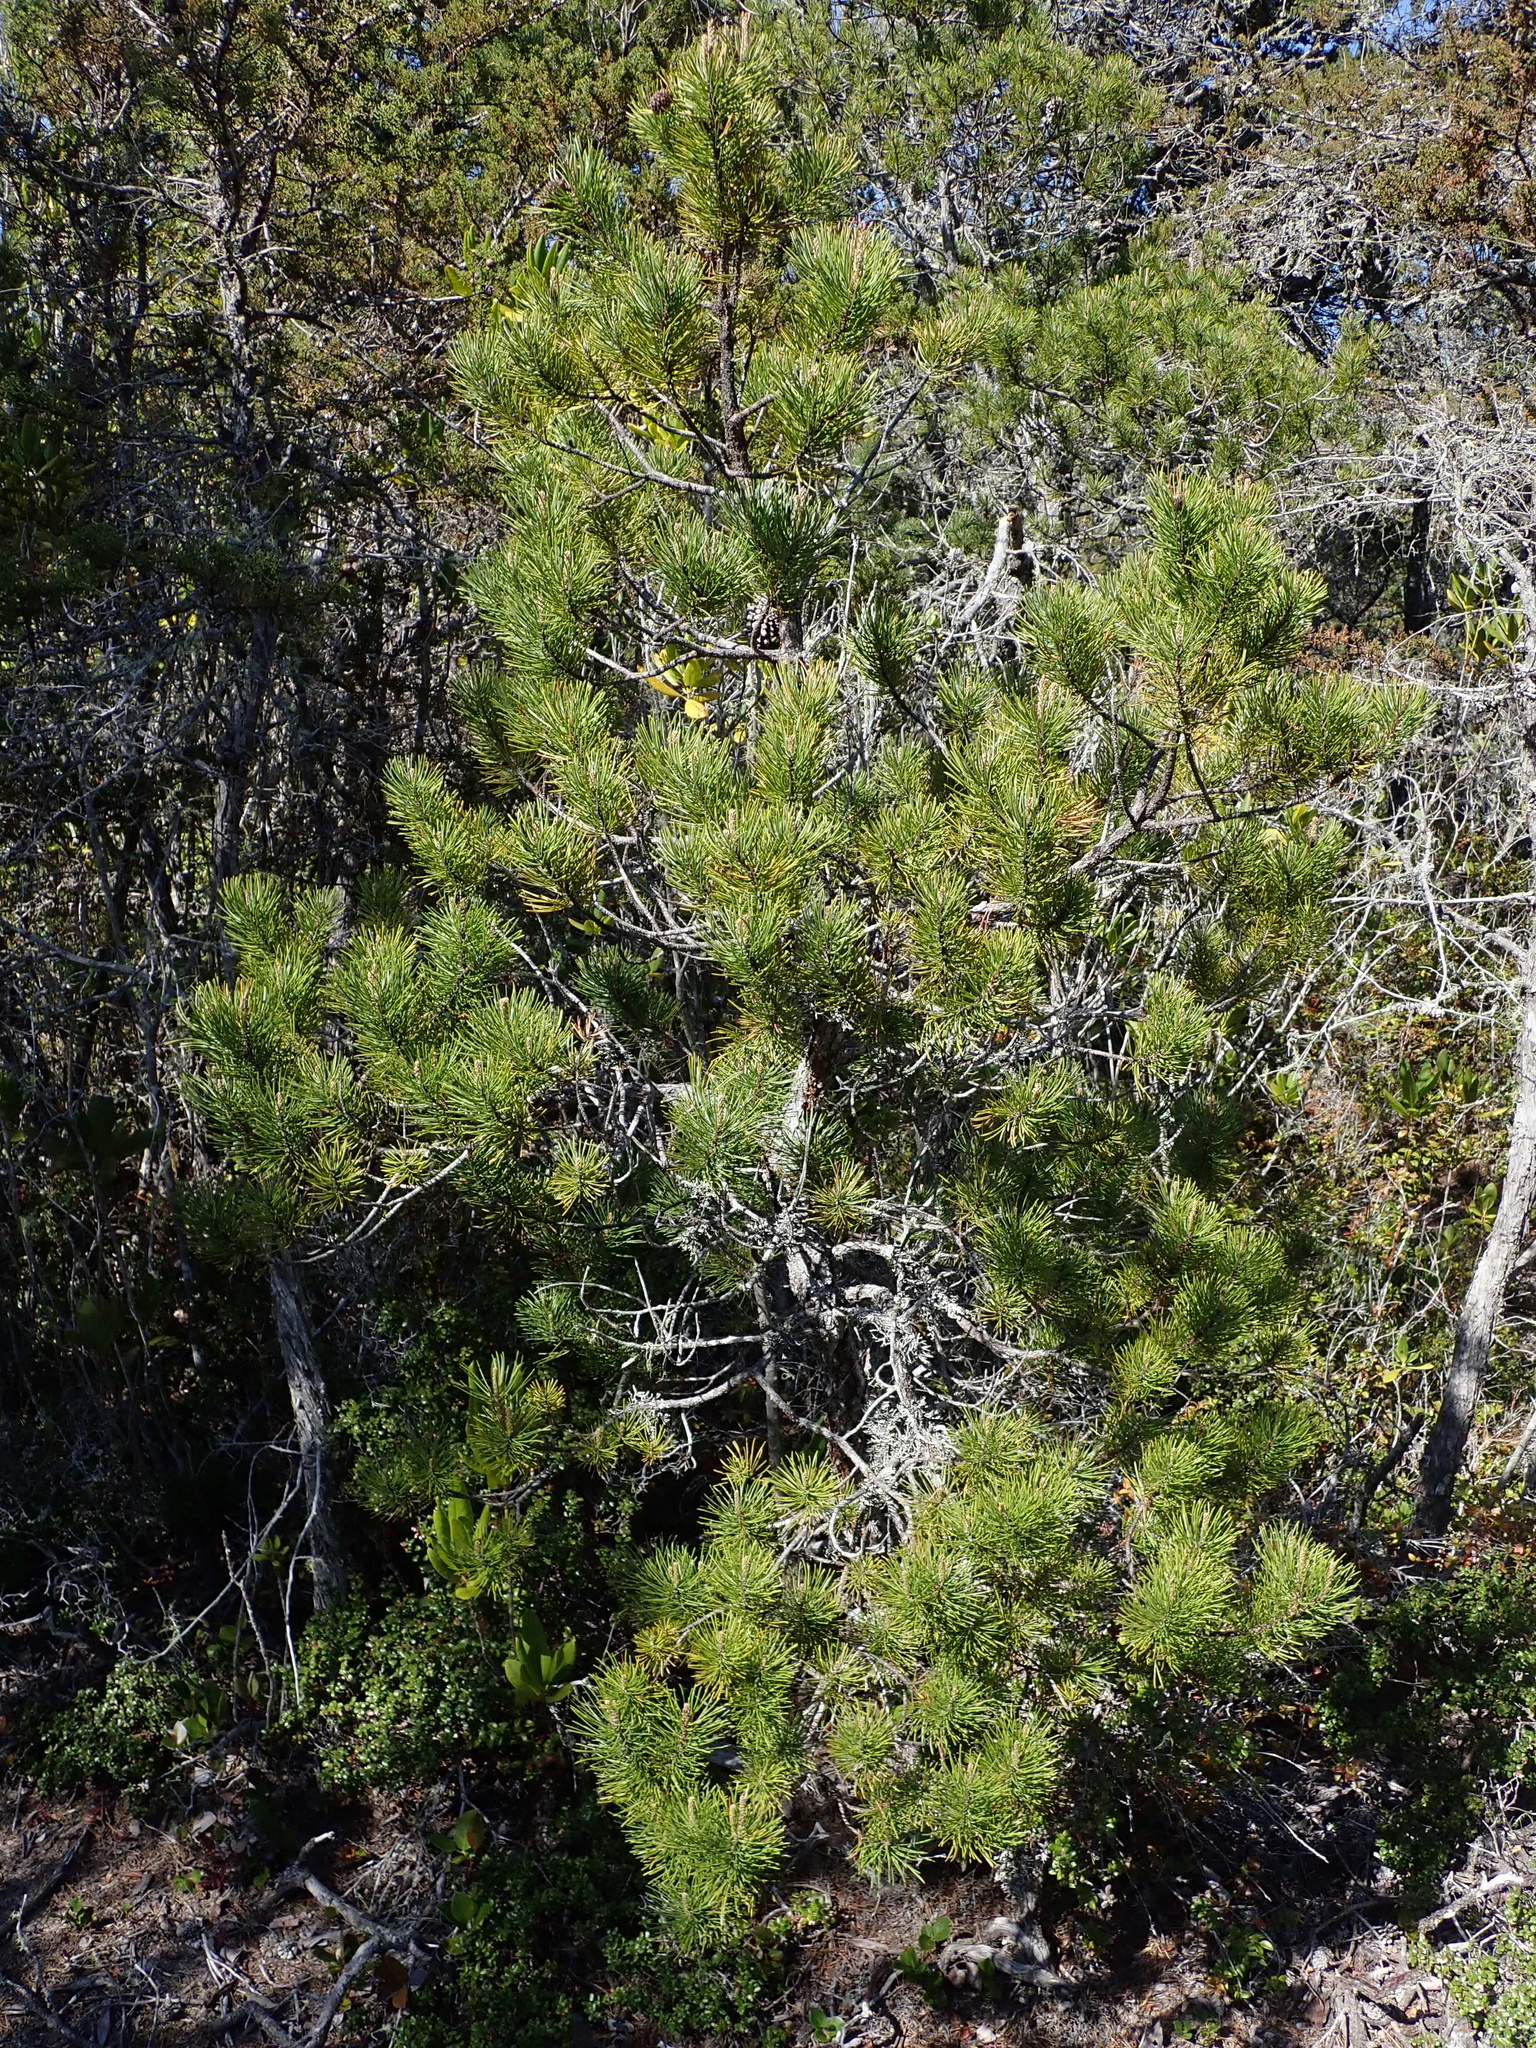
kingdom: Plantae
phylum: Tracheophyta
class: Pinopsida
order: Pinales
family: Pinaceae
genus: Pinus
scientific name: Pinus contorta
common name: Lodgepole pine
